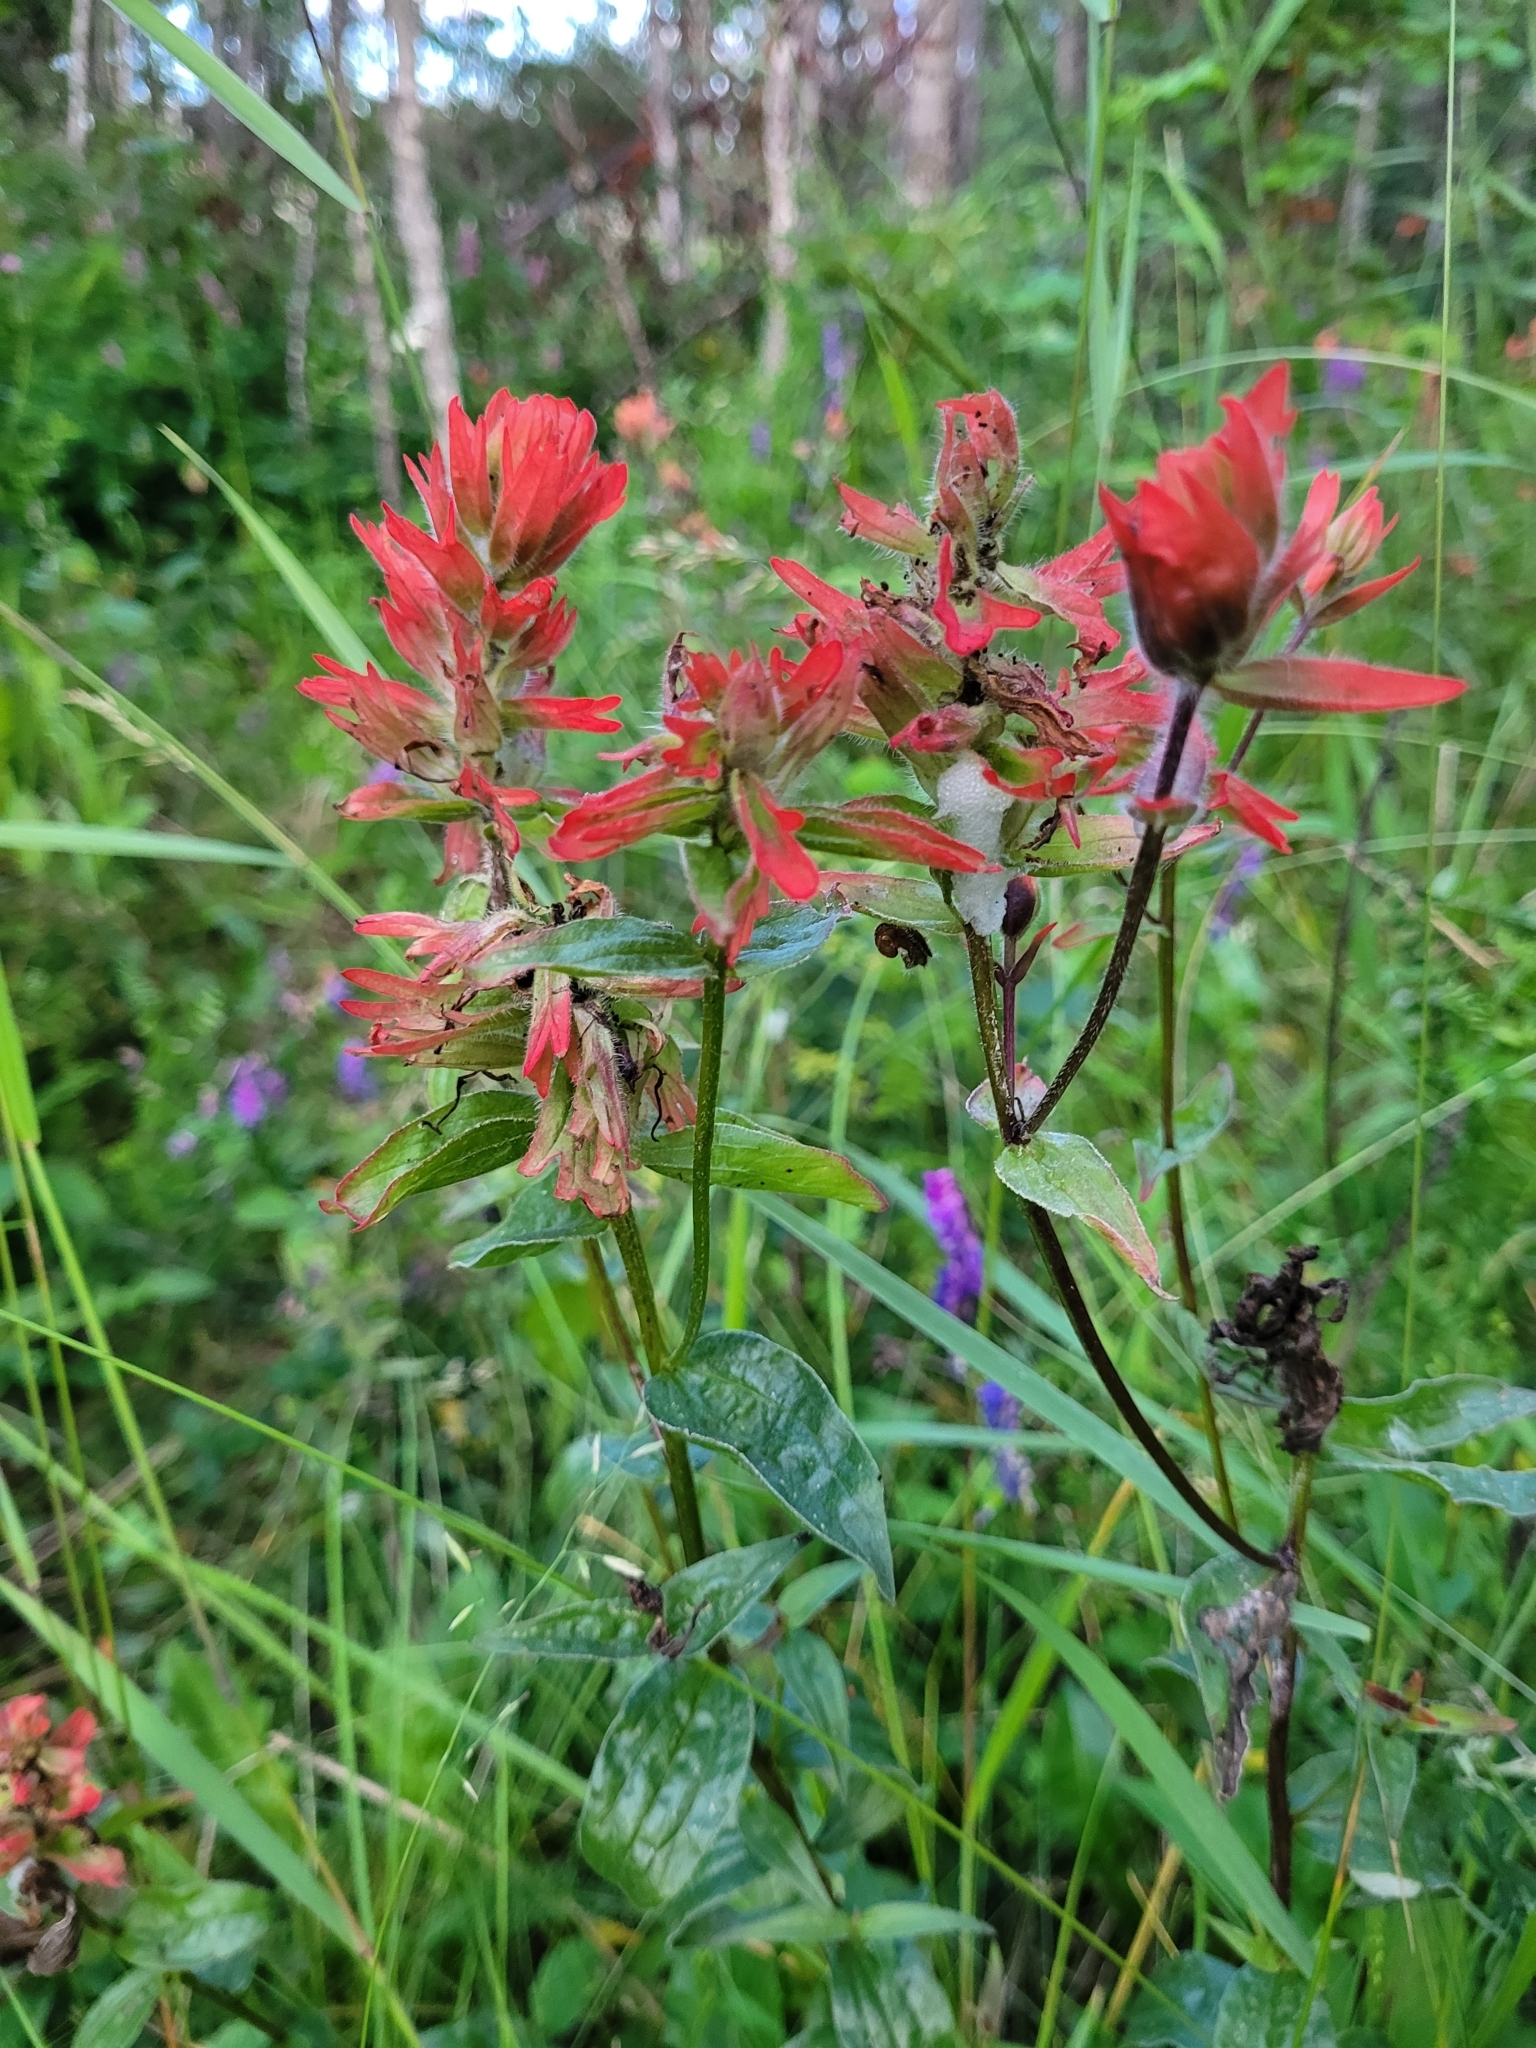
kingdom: Plantae
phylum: Tracheophyta
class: Magnoliopsida
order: Lamiales
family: Orobanchaceae
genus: Castilleja
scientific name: Castilleja miniata
